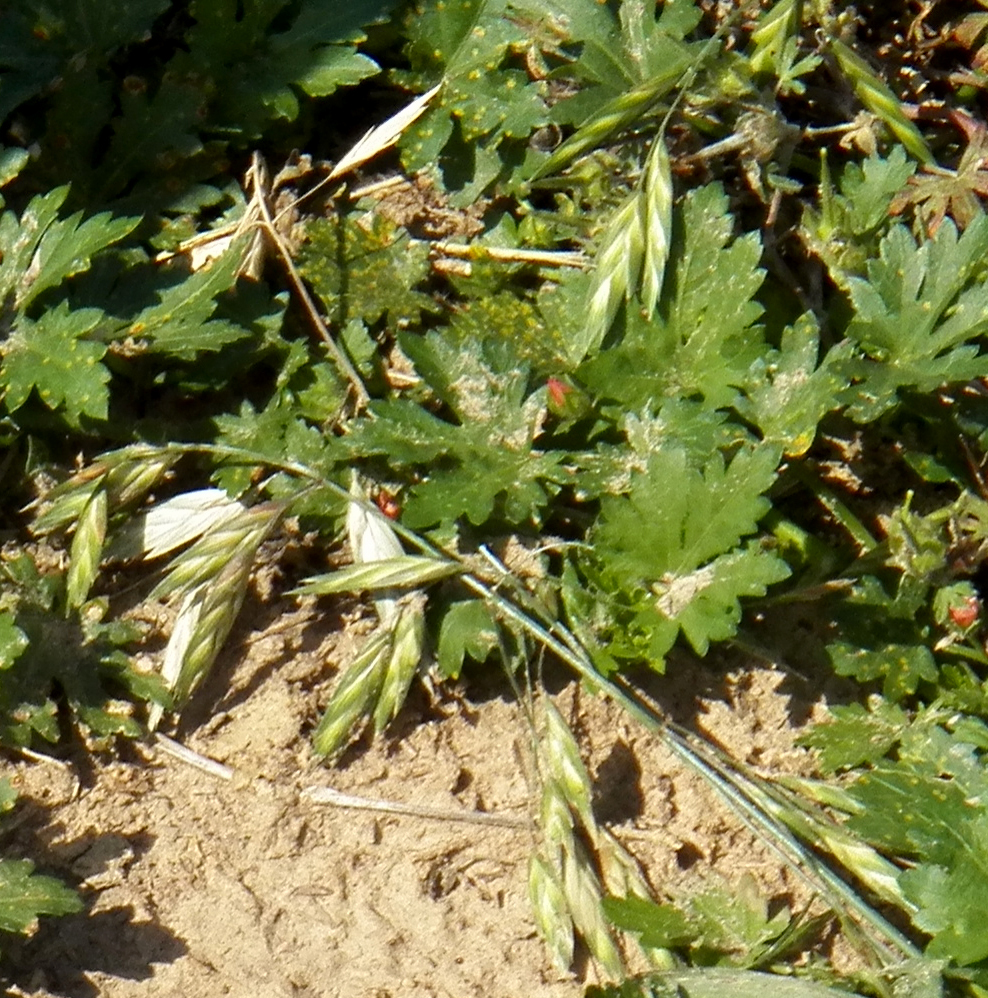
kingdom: Plantae
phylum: Tracheophyta
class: Liliopsida
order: Poales
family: Poaceae
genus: Bromus
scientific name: Bromus catharticus
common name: Rescuegrass
